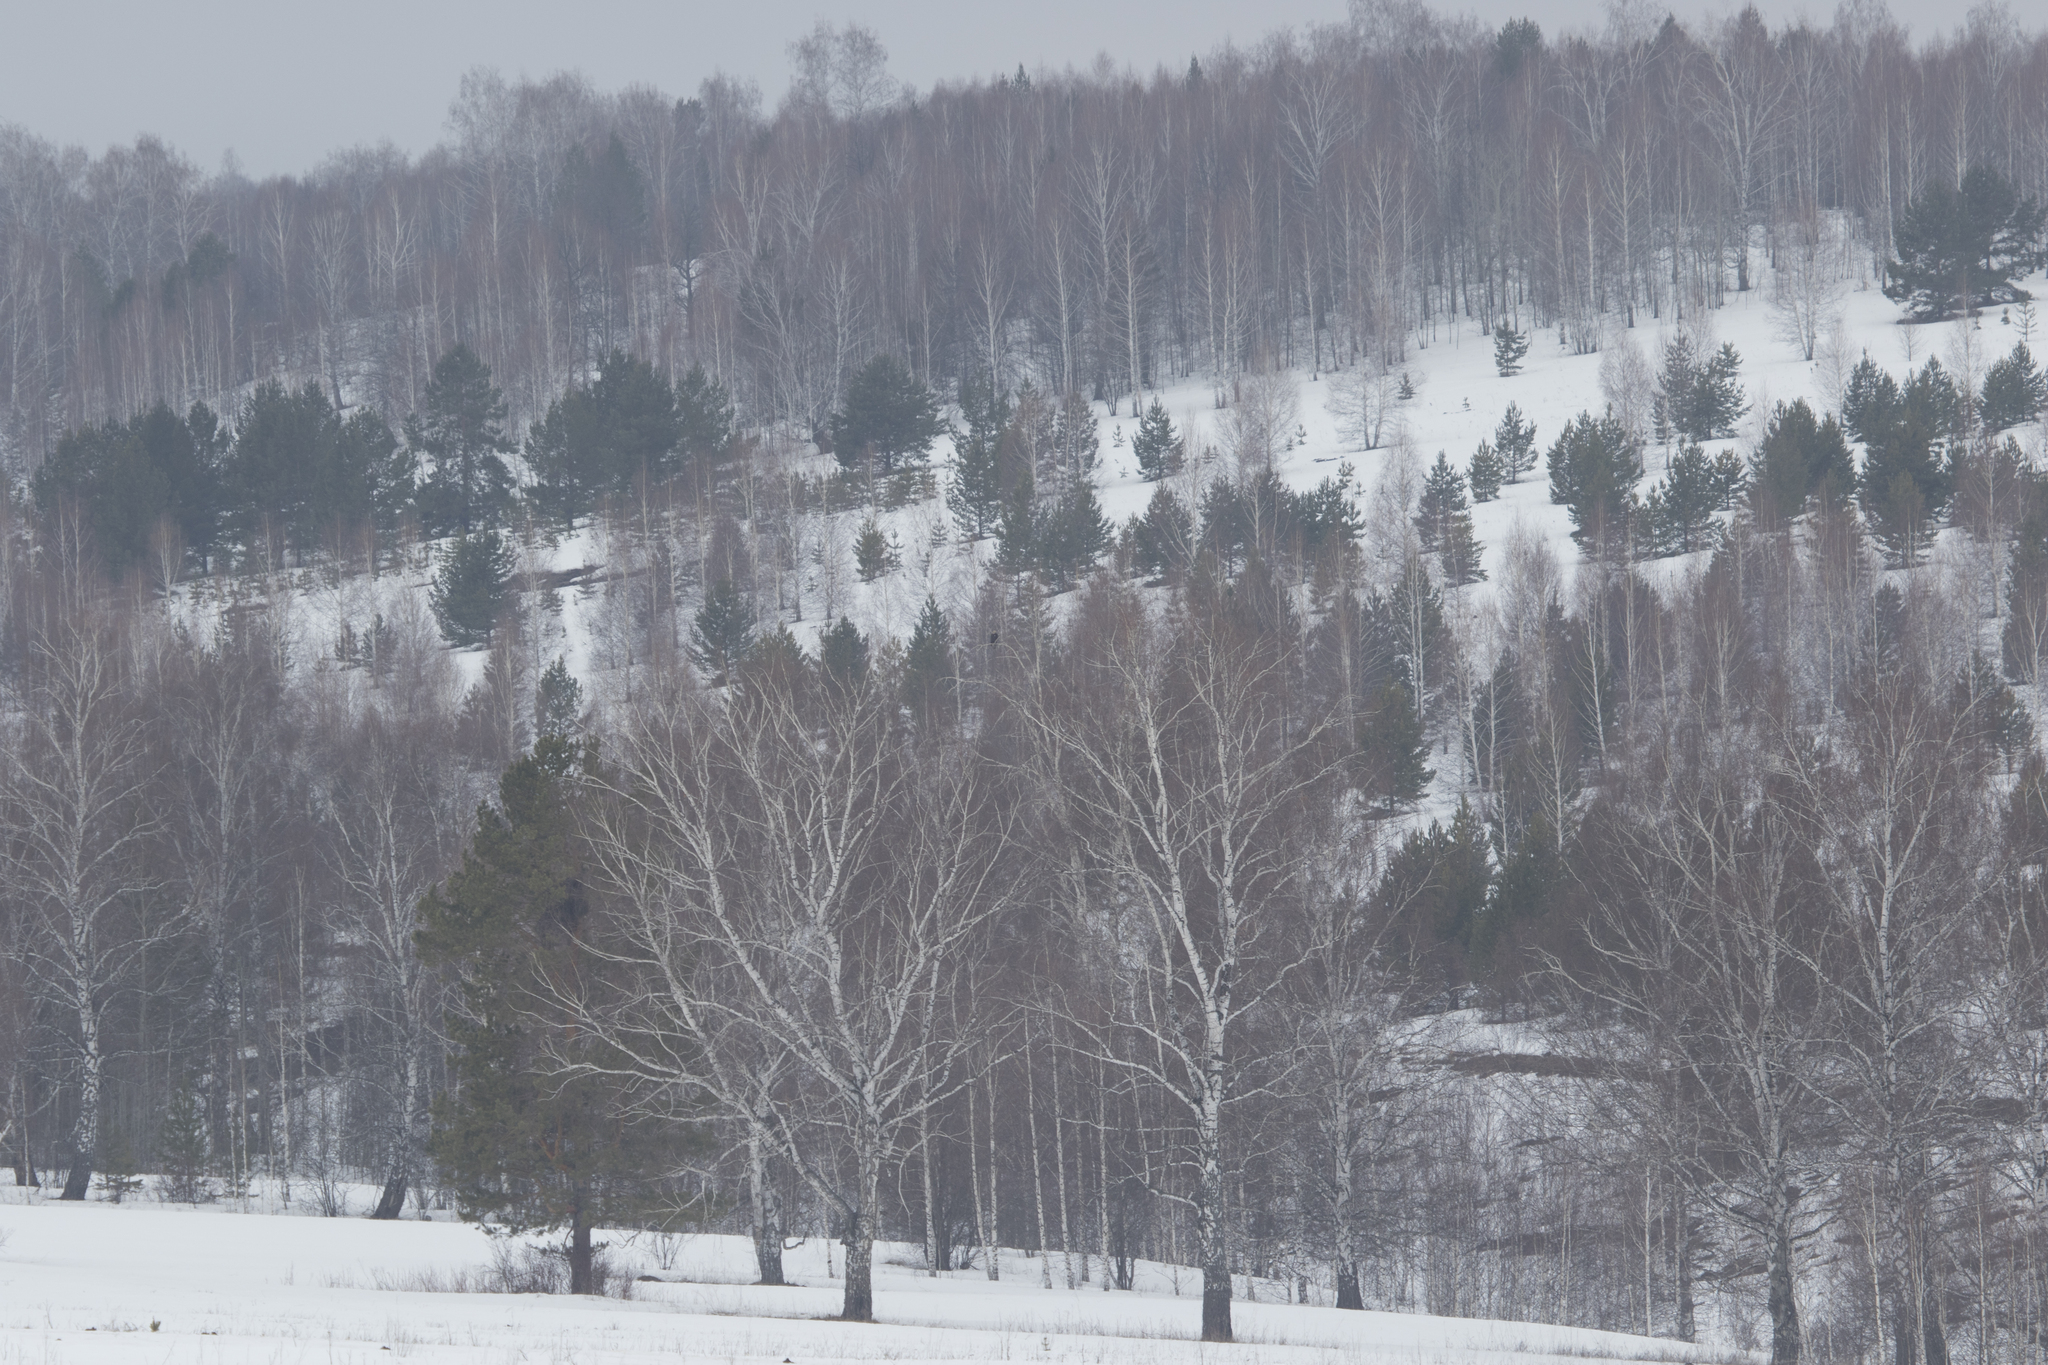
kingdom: Animalia
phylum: Chordata
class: Aves
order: Accipitriformes
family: Accipitridae
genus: Aquila
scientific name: Aquila heliaca
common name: Eastern imperial eagle
